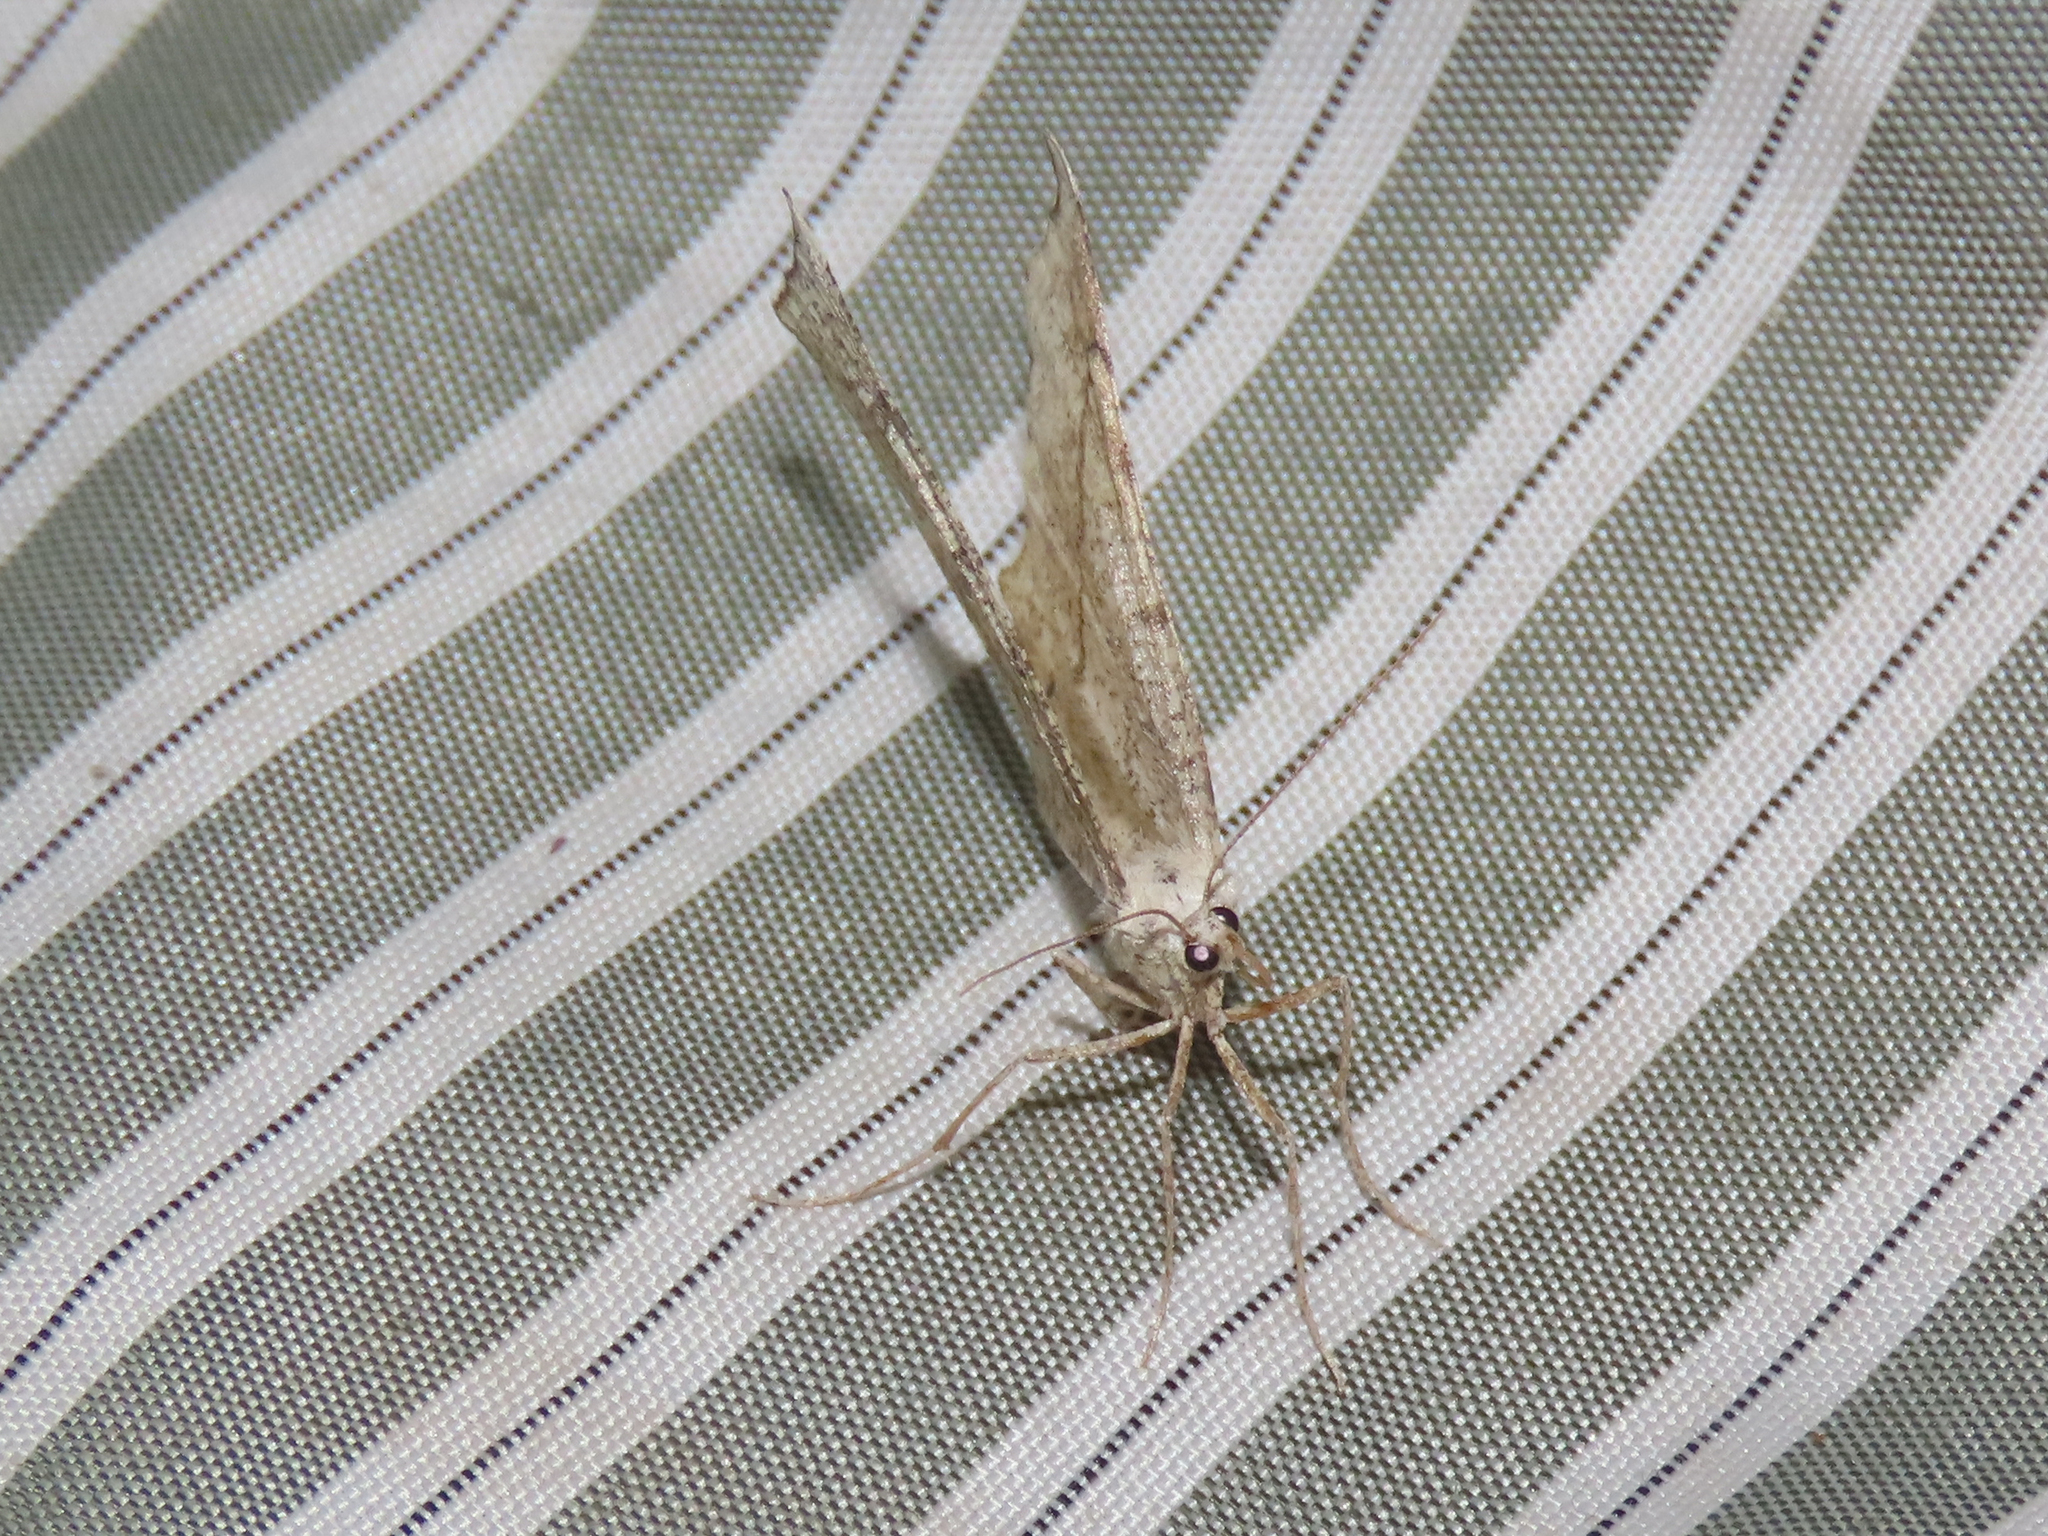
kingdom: Animalia
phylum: Arthropoda
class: Insecta
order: Lepidoptera
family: Geometridae
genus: Eriplatymetra
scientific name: Eriplatymetra grotearia
